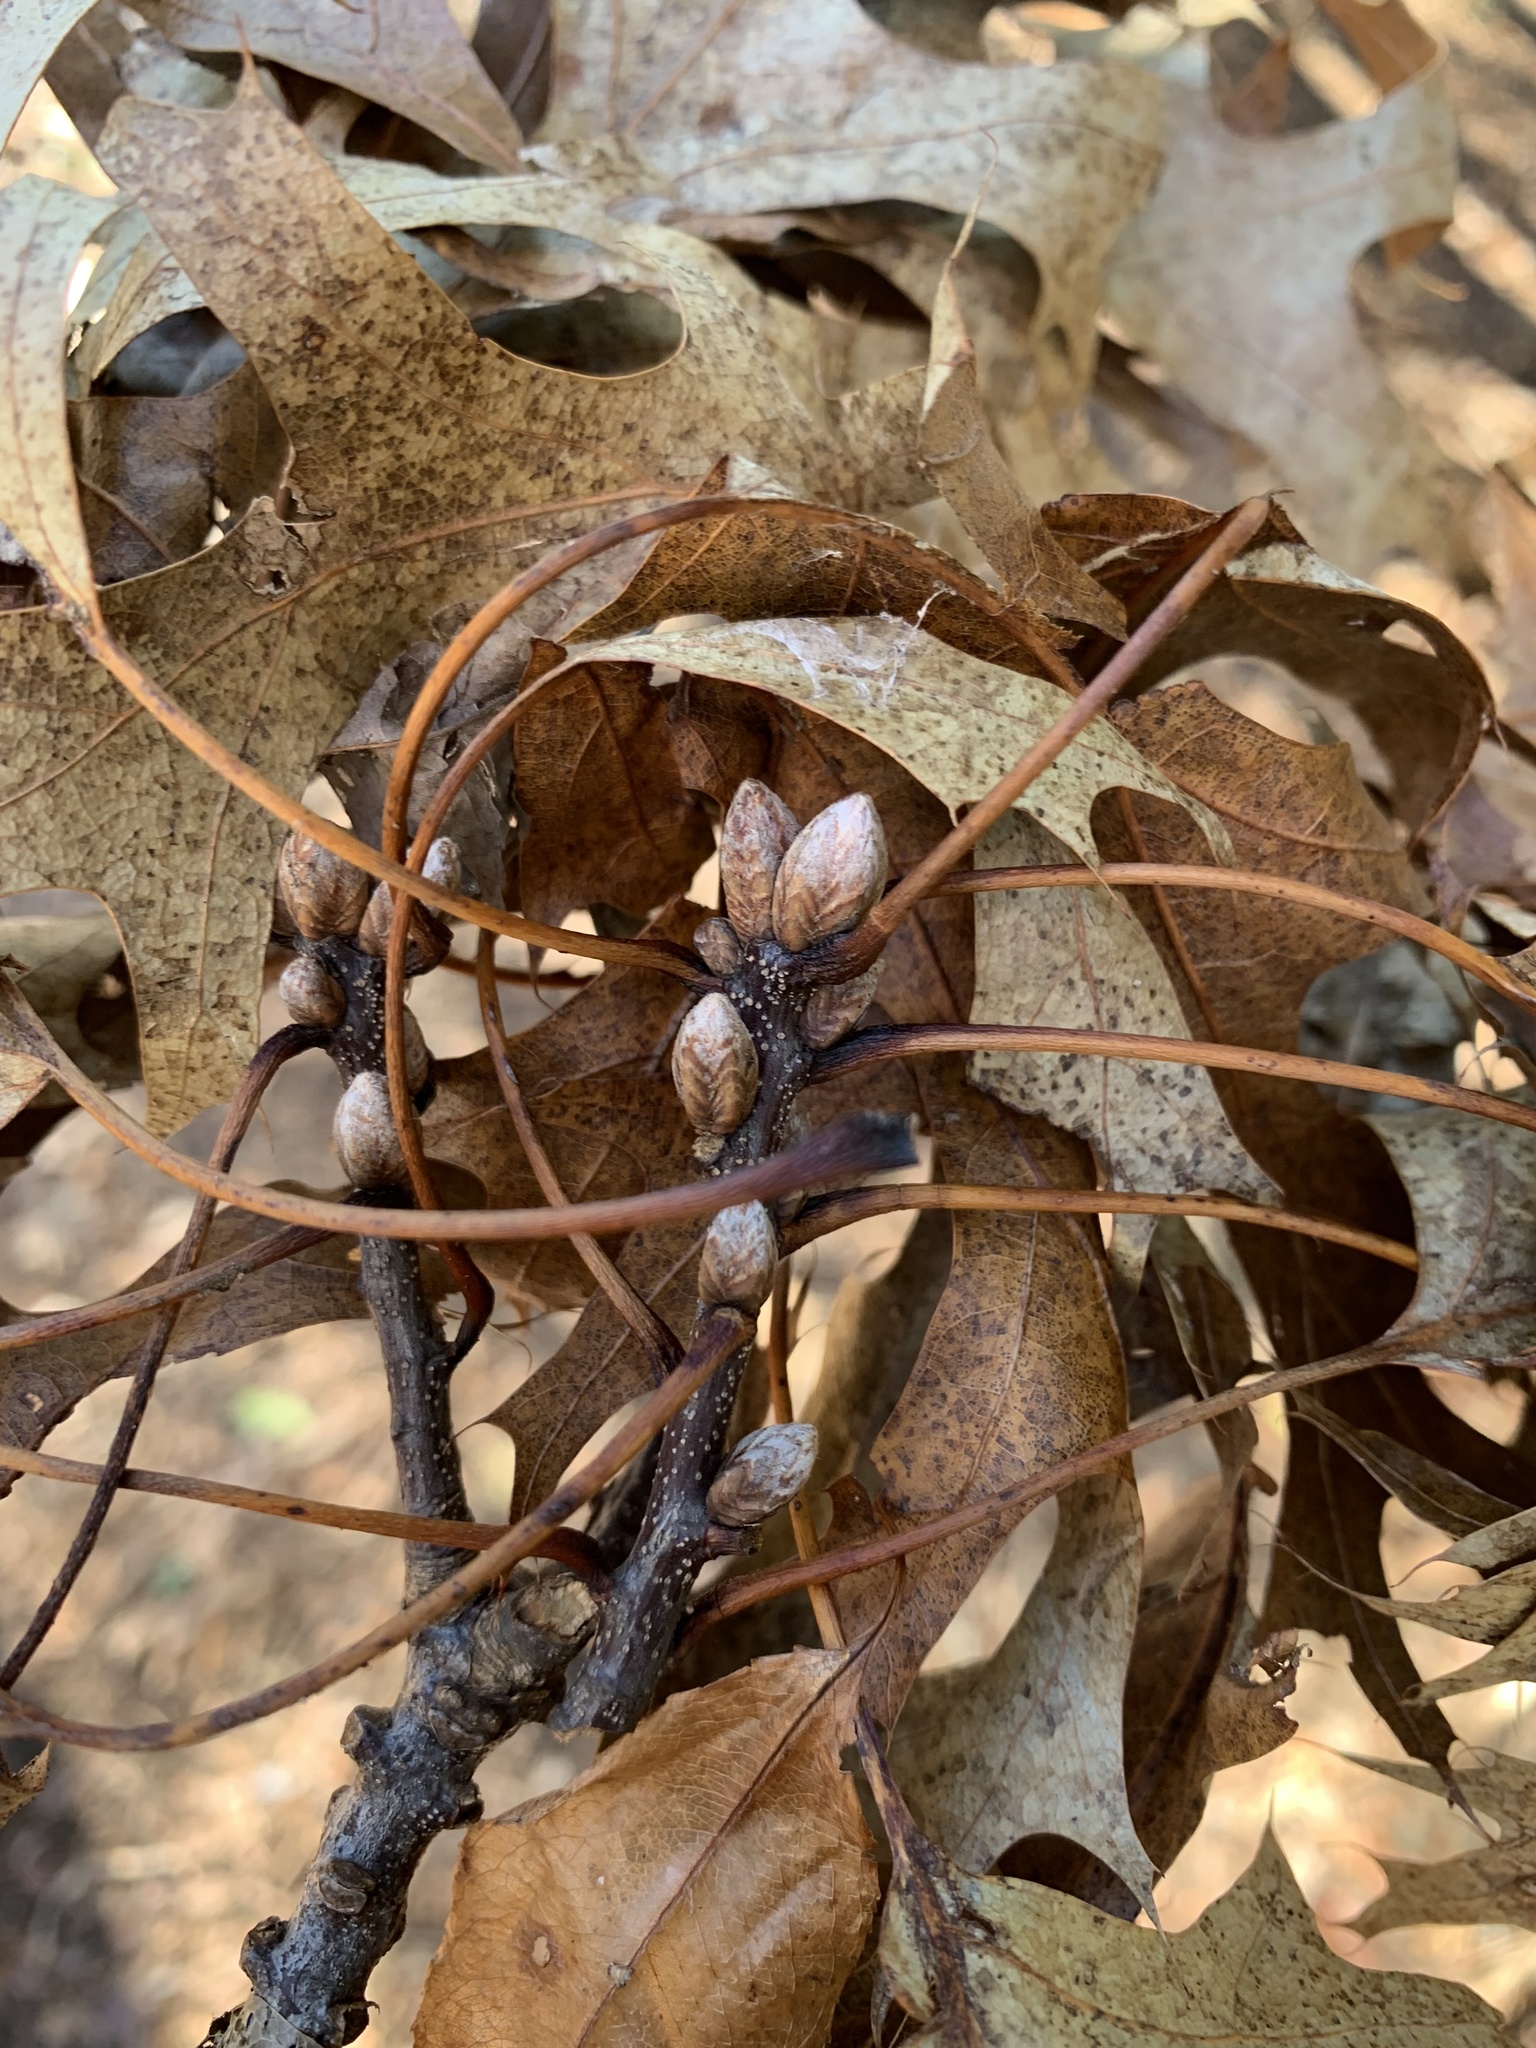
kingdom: Plantae
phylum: Tracheophyta
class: Magnoliopsida
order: Fagales
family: Fagaceae
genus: Quercus
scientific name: Quercus coccinea
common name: Scarlet oak
